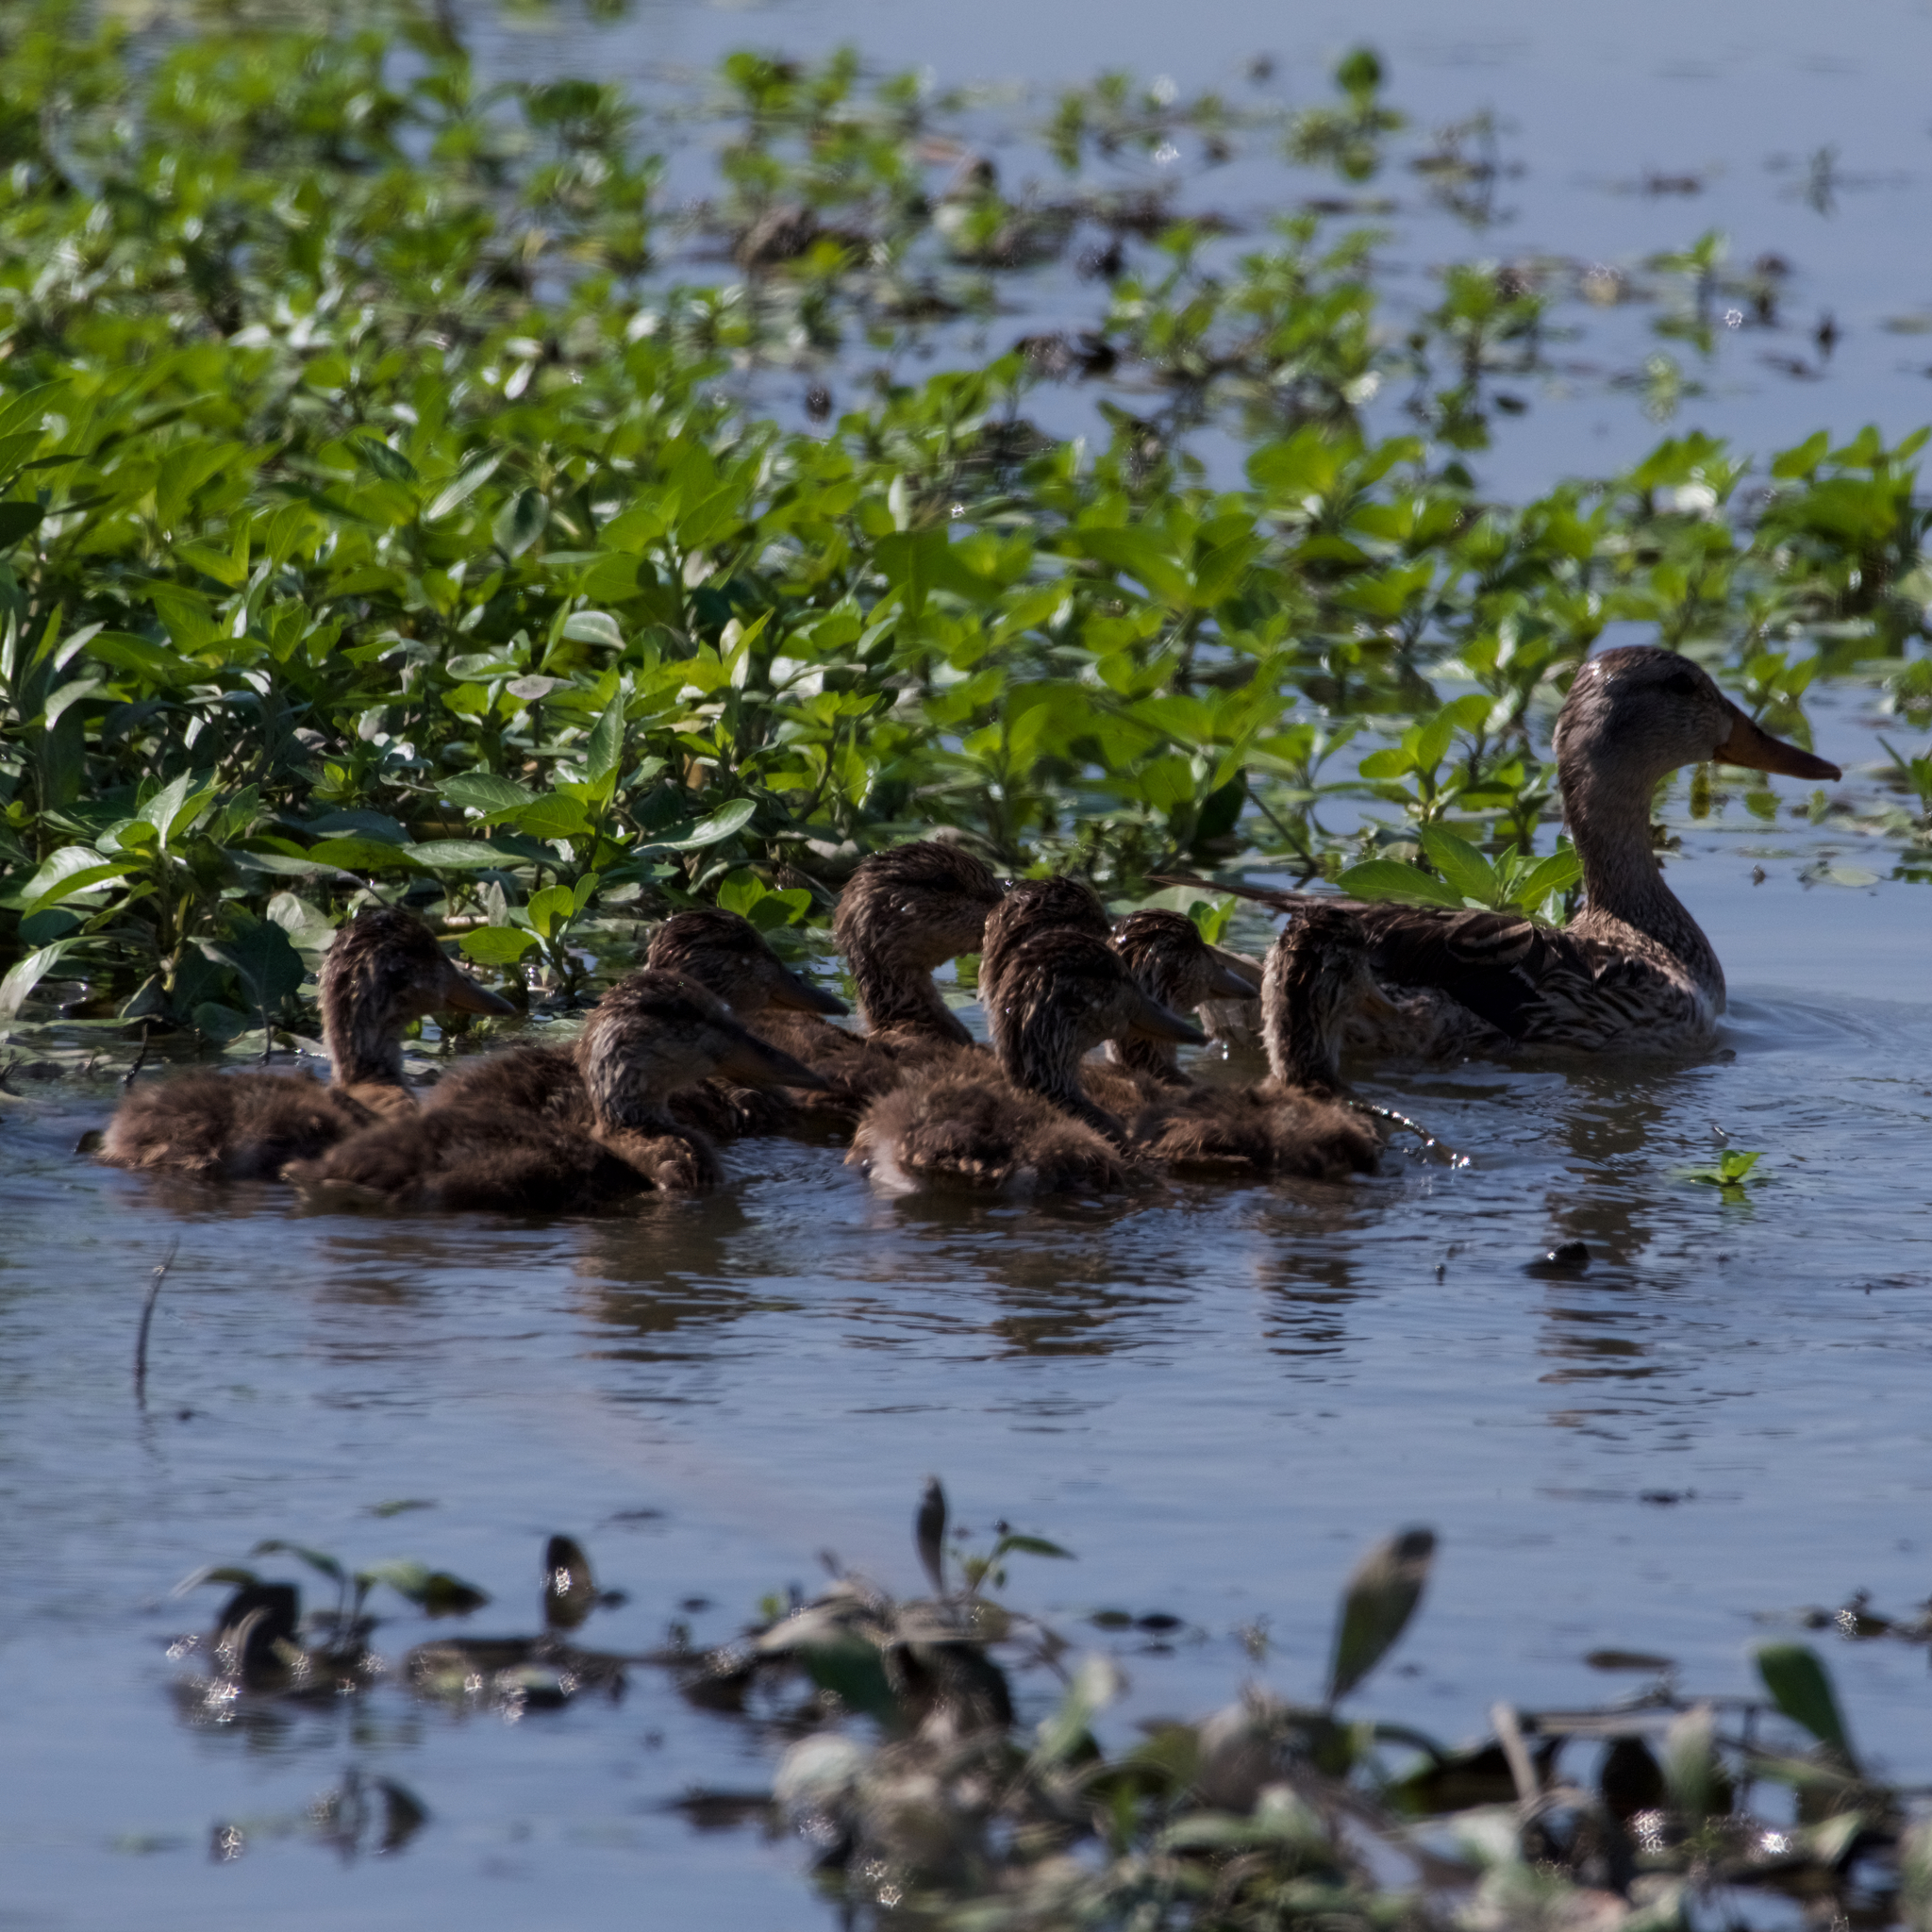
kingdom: Animalia
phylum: Chordata
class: Aves
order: Anseriformes
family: Anatidae
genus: Anas
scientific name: Anas platyrhynchos
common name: Mallard
